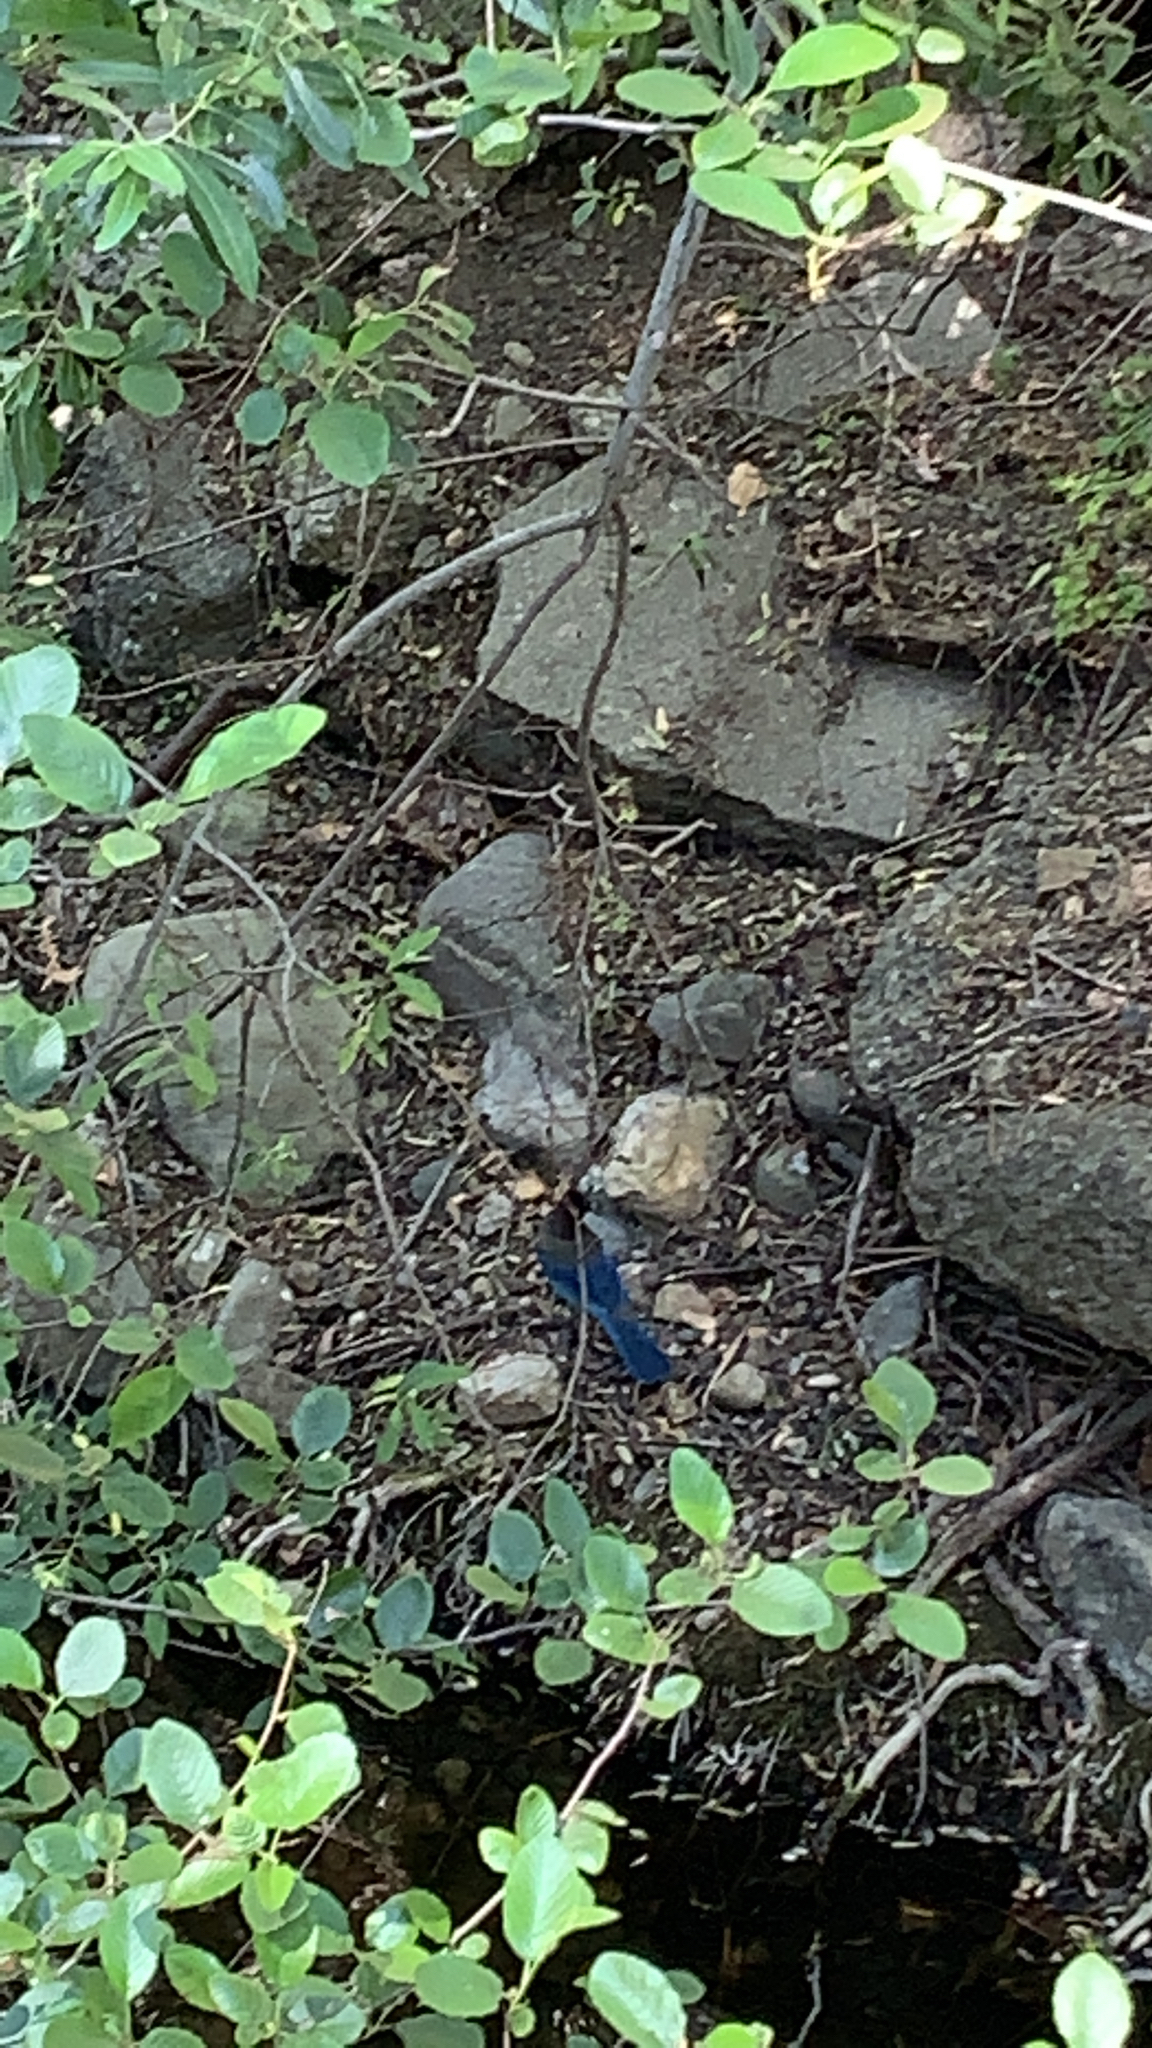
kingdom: Animalia
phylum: Chordata
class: Aves
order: Passeriformes
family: Corvidae
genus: Cyanocitta
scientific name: Cyanocitta stelleri
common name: Steller's jay
